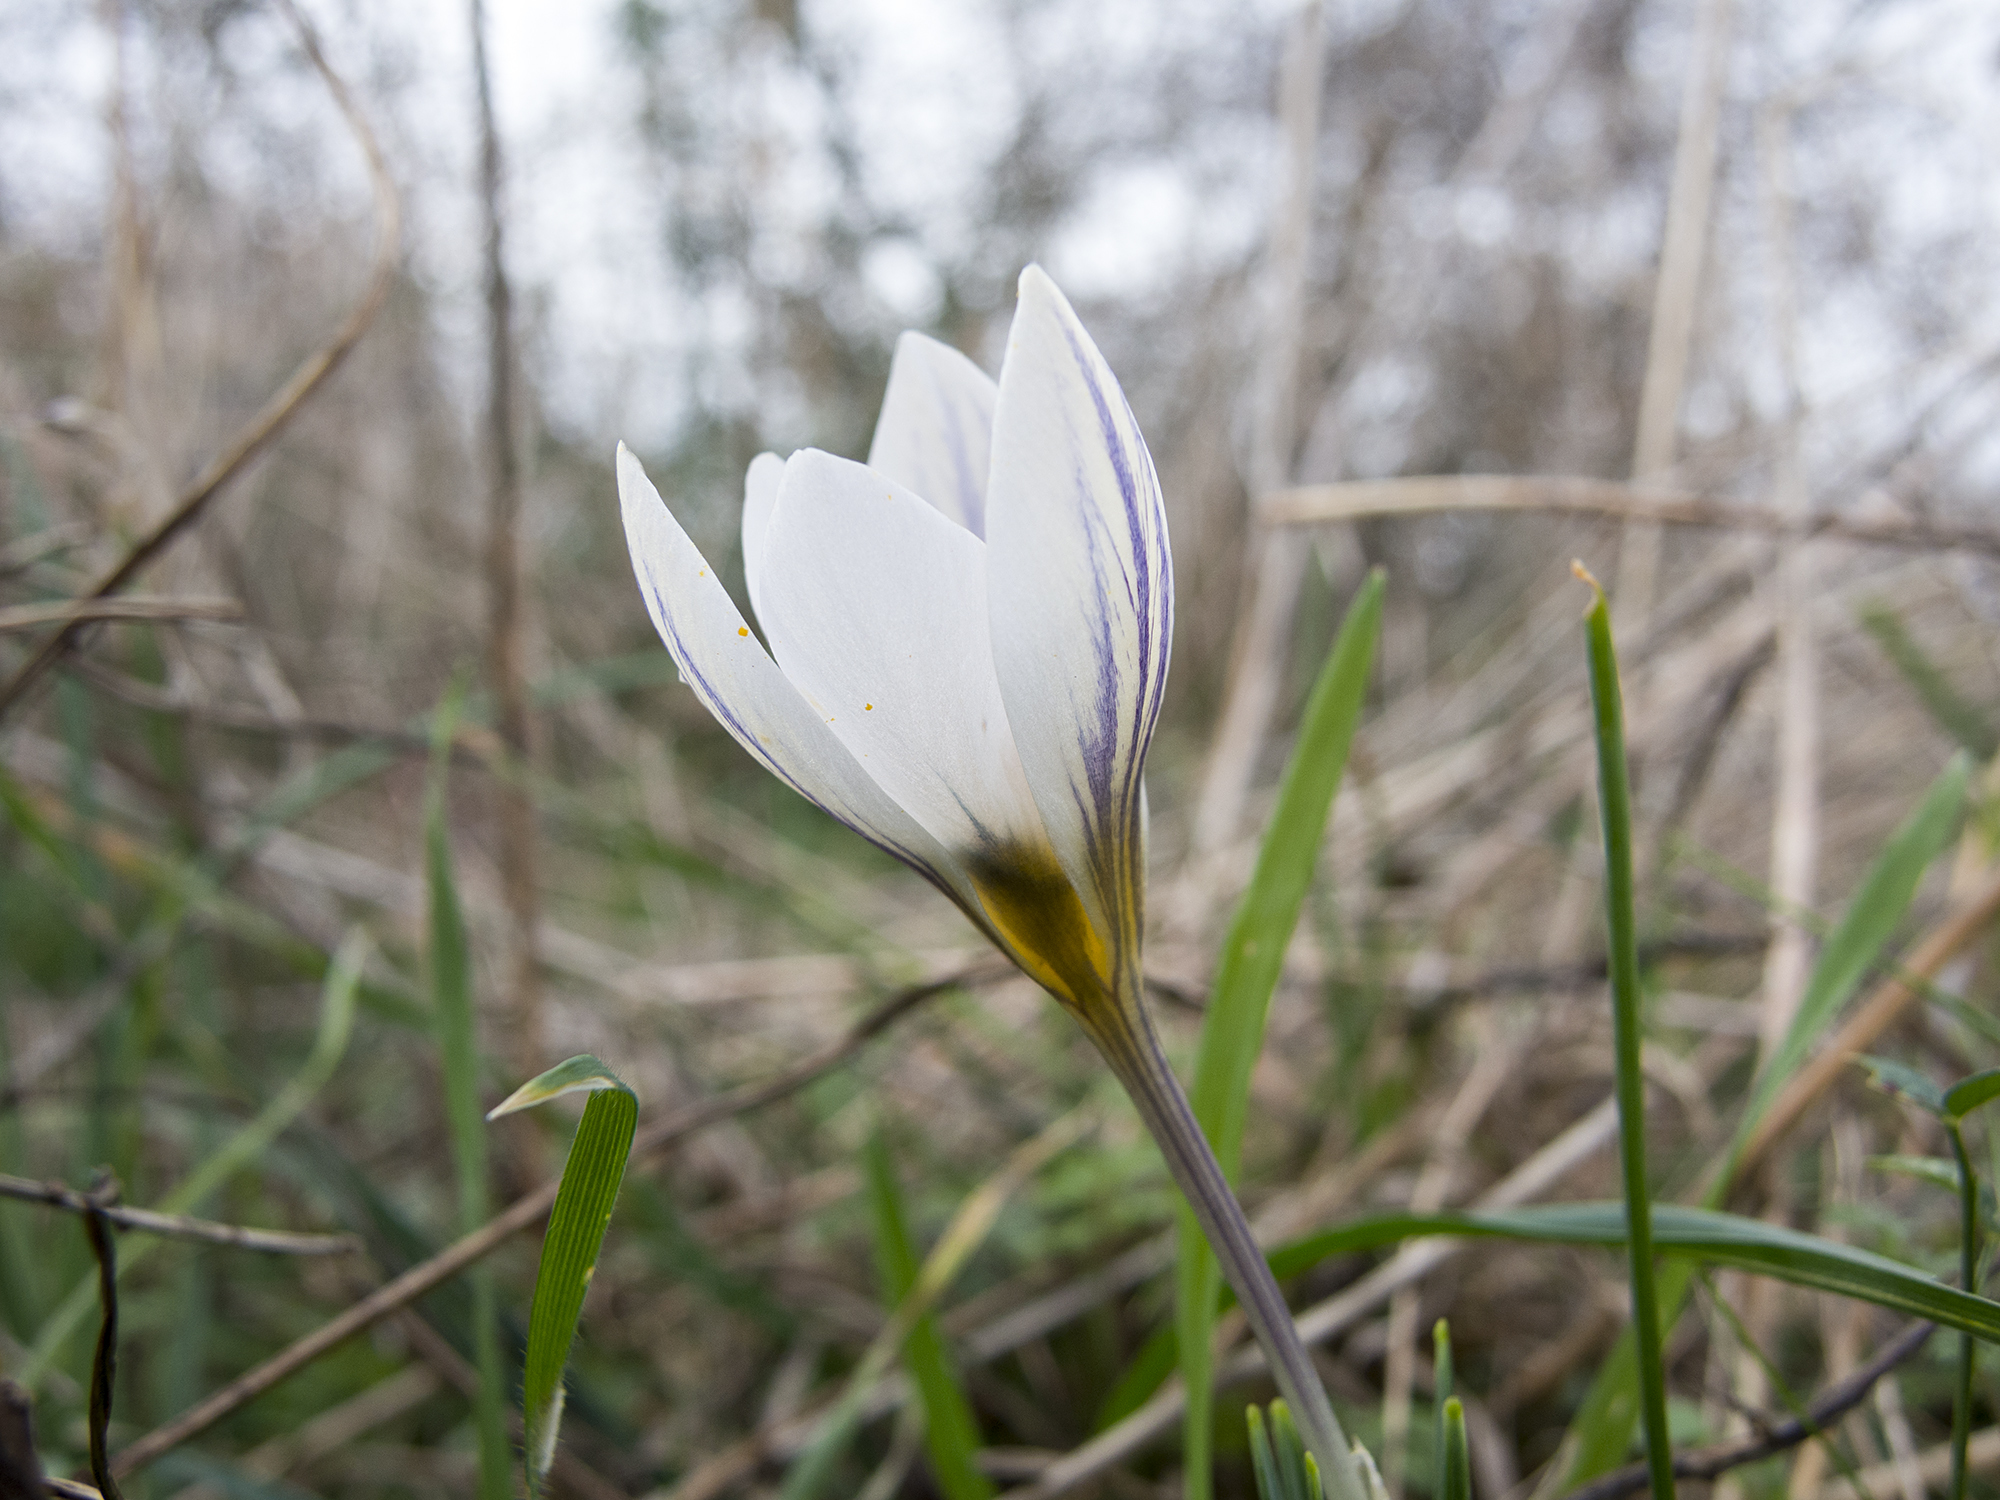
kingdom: Plantae
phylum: Tracheophyta
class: Liliopsida
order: Asparagales
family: Iridaceae
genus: Crocus
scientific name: Crocus adamioides
